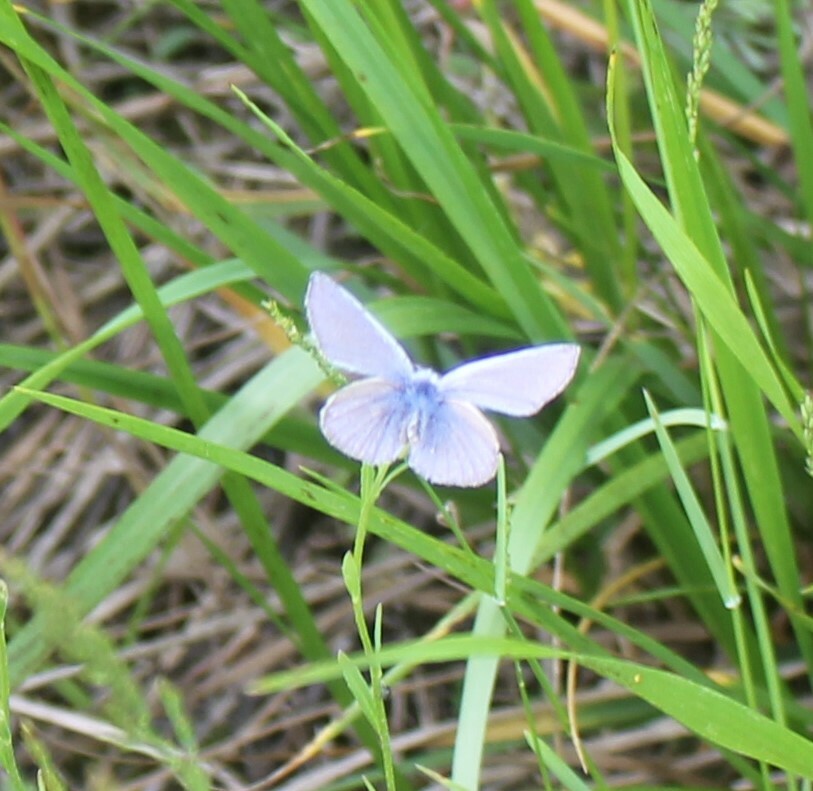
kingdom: Animalia
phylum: Arthropoda
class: Insecta
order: Lepidoptera
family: Lycaenidae
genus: Polyommatus
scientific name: Polyommatus icarus
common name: Common blue
